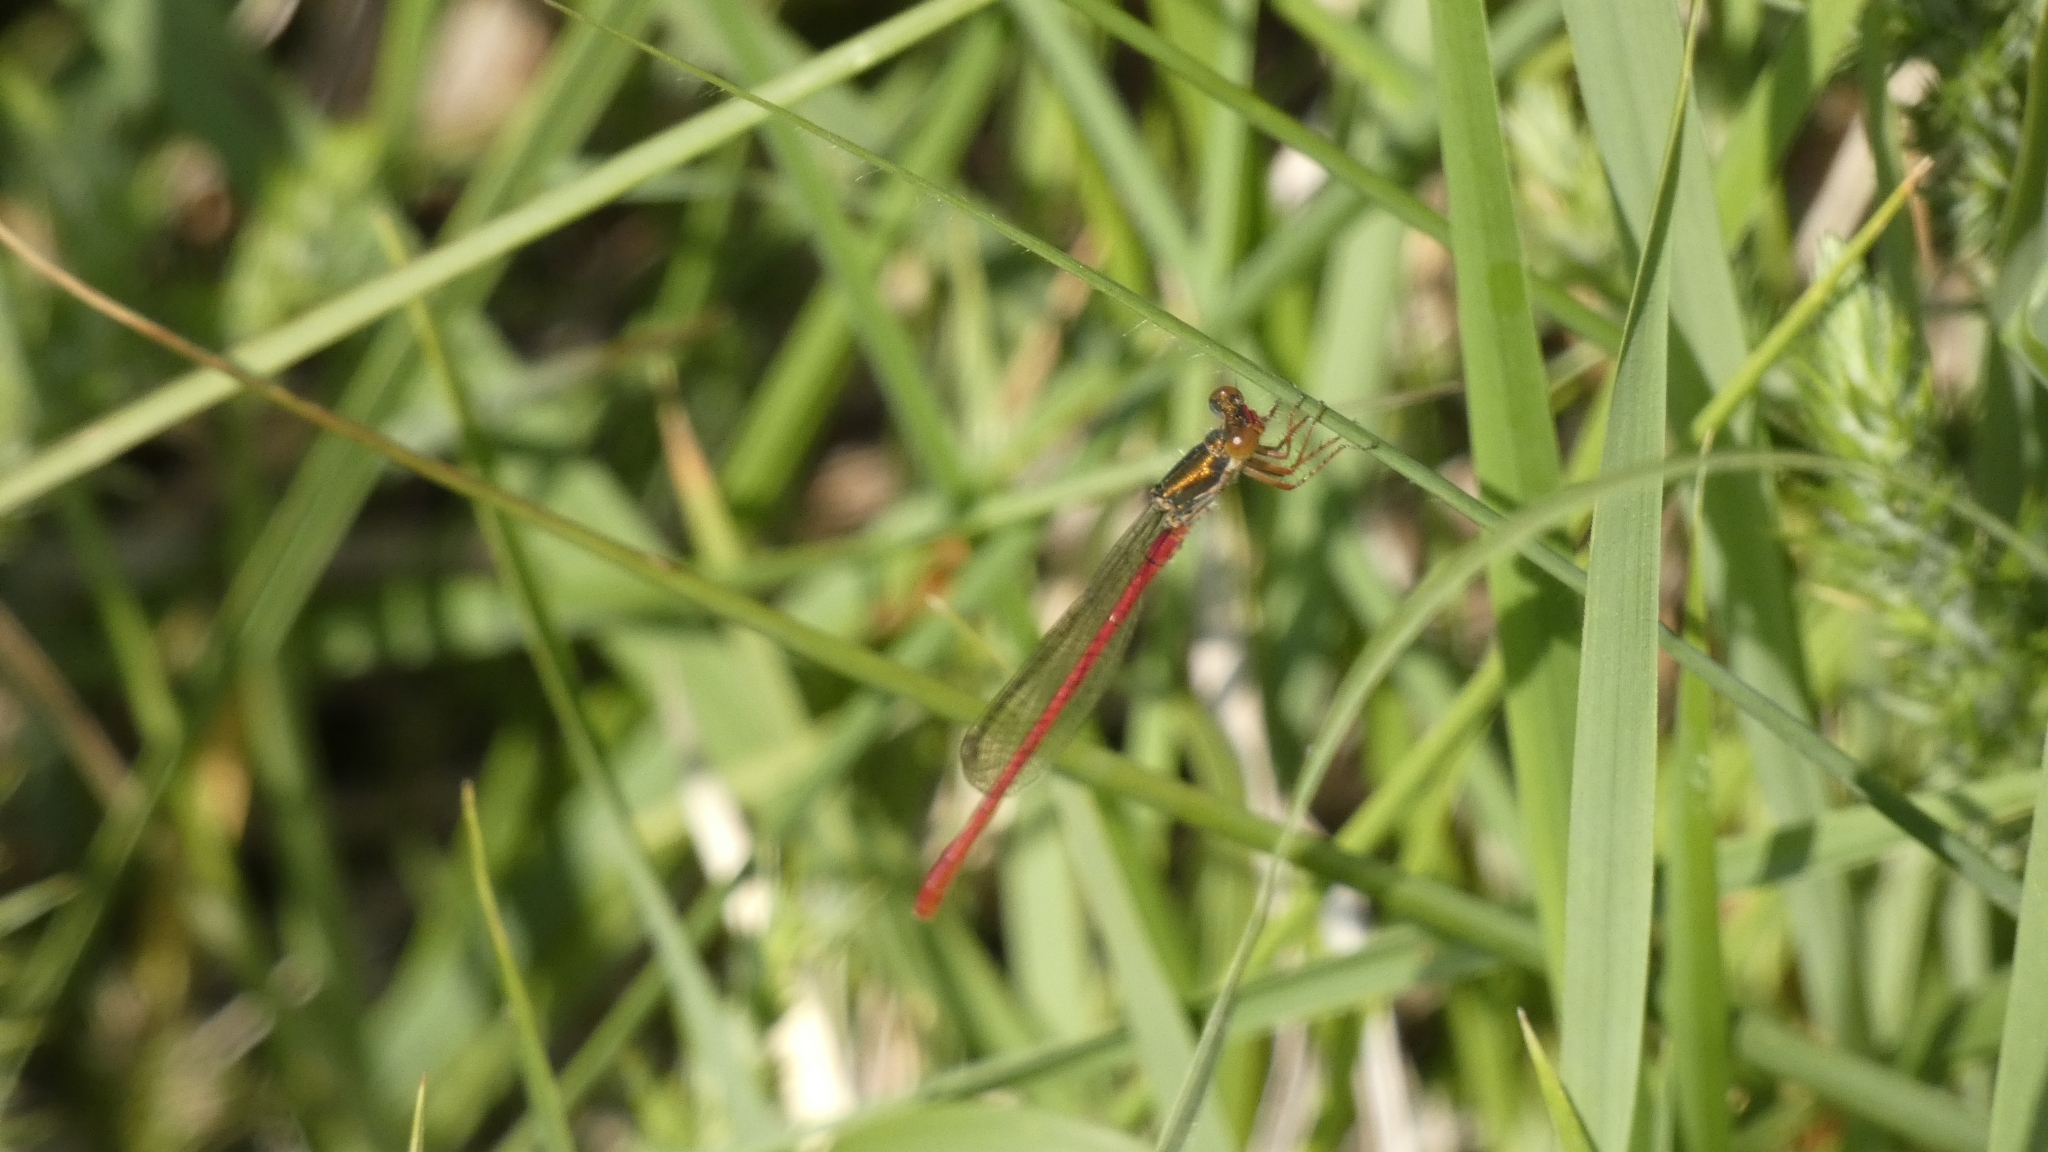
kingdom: Animalia
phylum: Arthropoda
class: Insecta
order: Odonata
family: Coenagrionidae
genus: Ceriagrion
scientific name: Ceriagrion tenellum
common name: Small red damselfly
